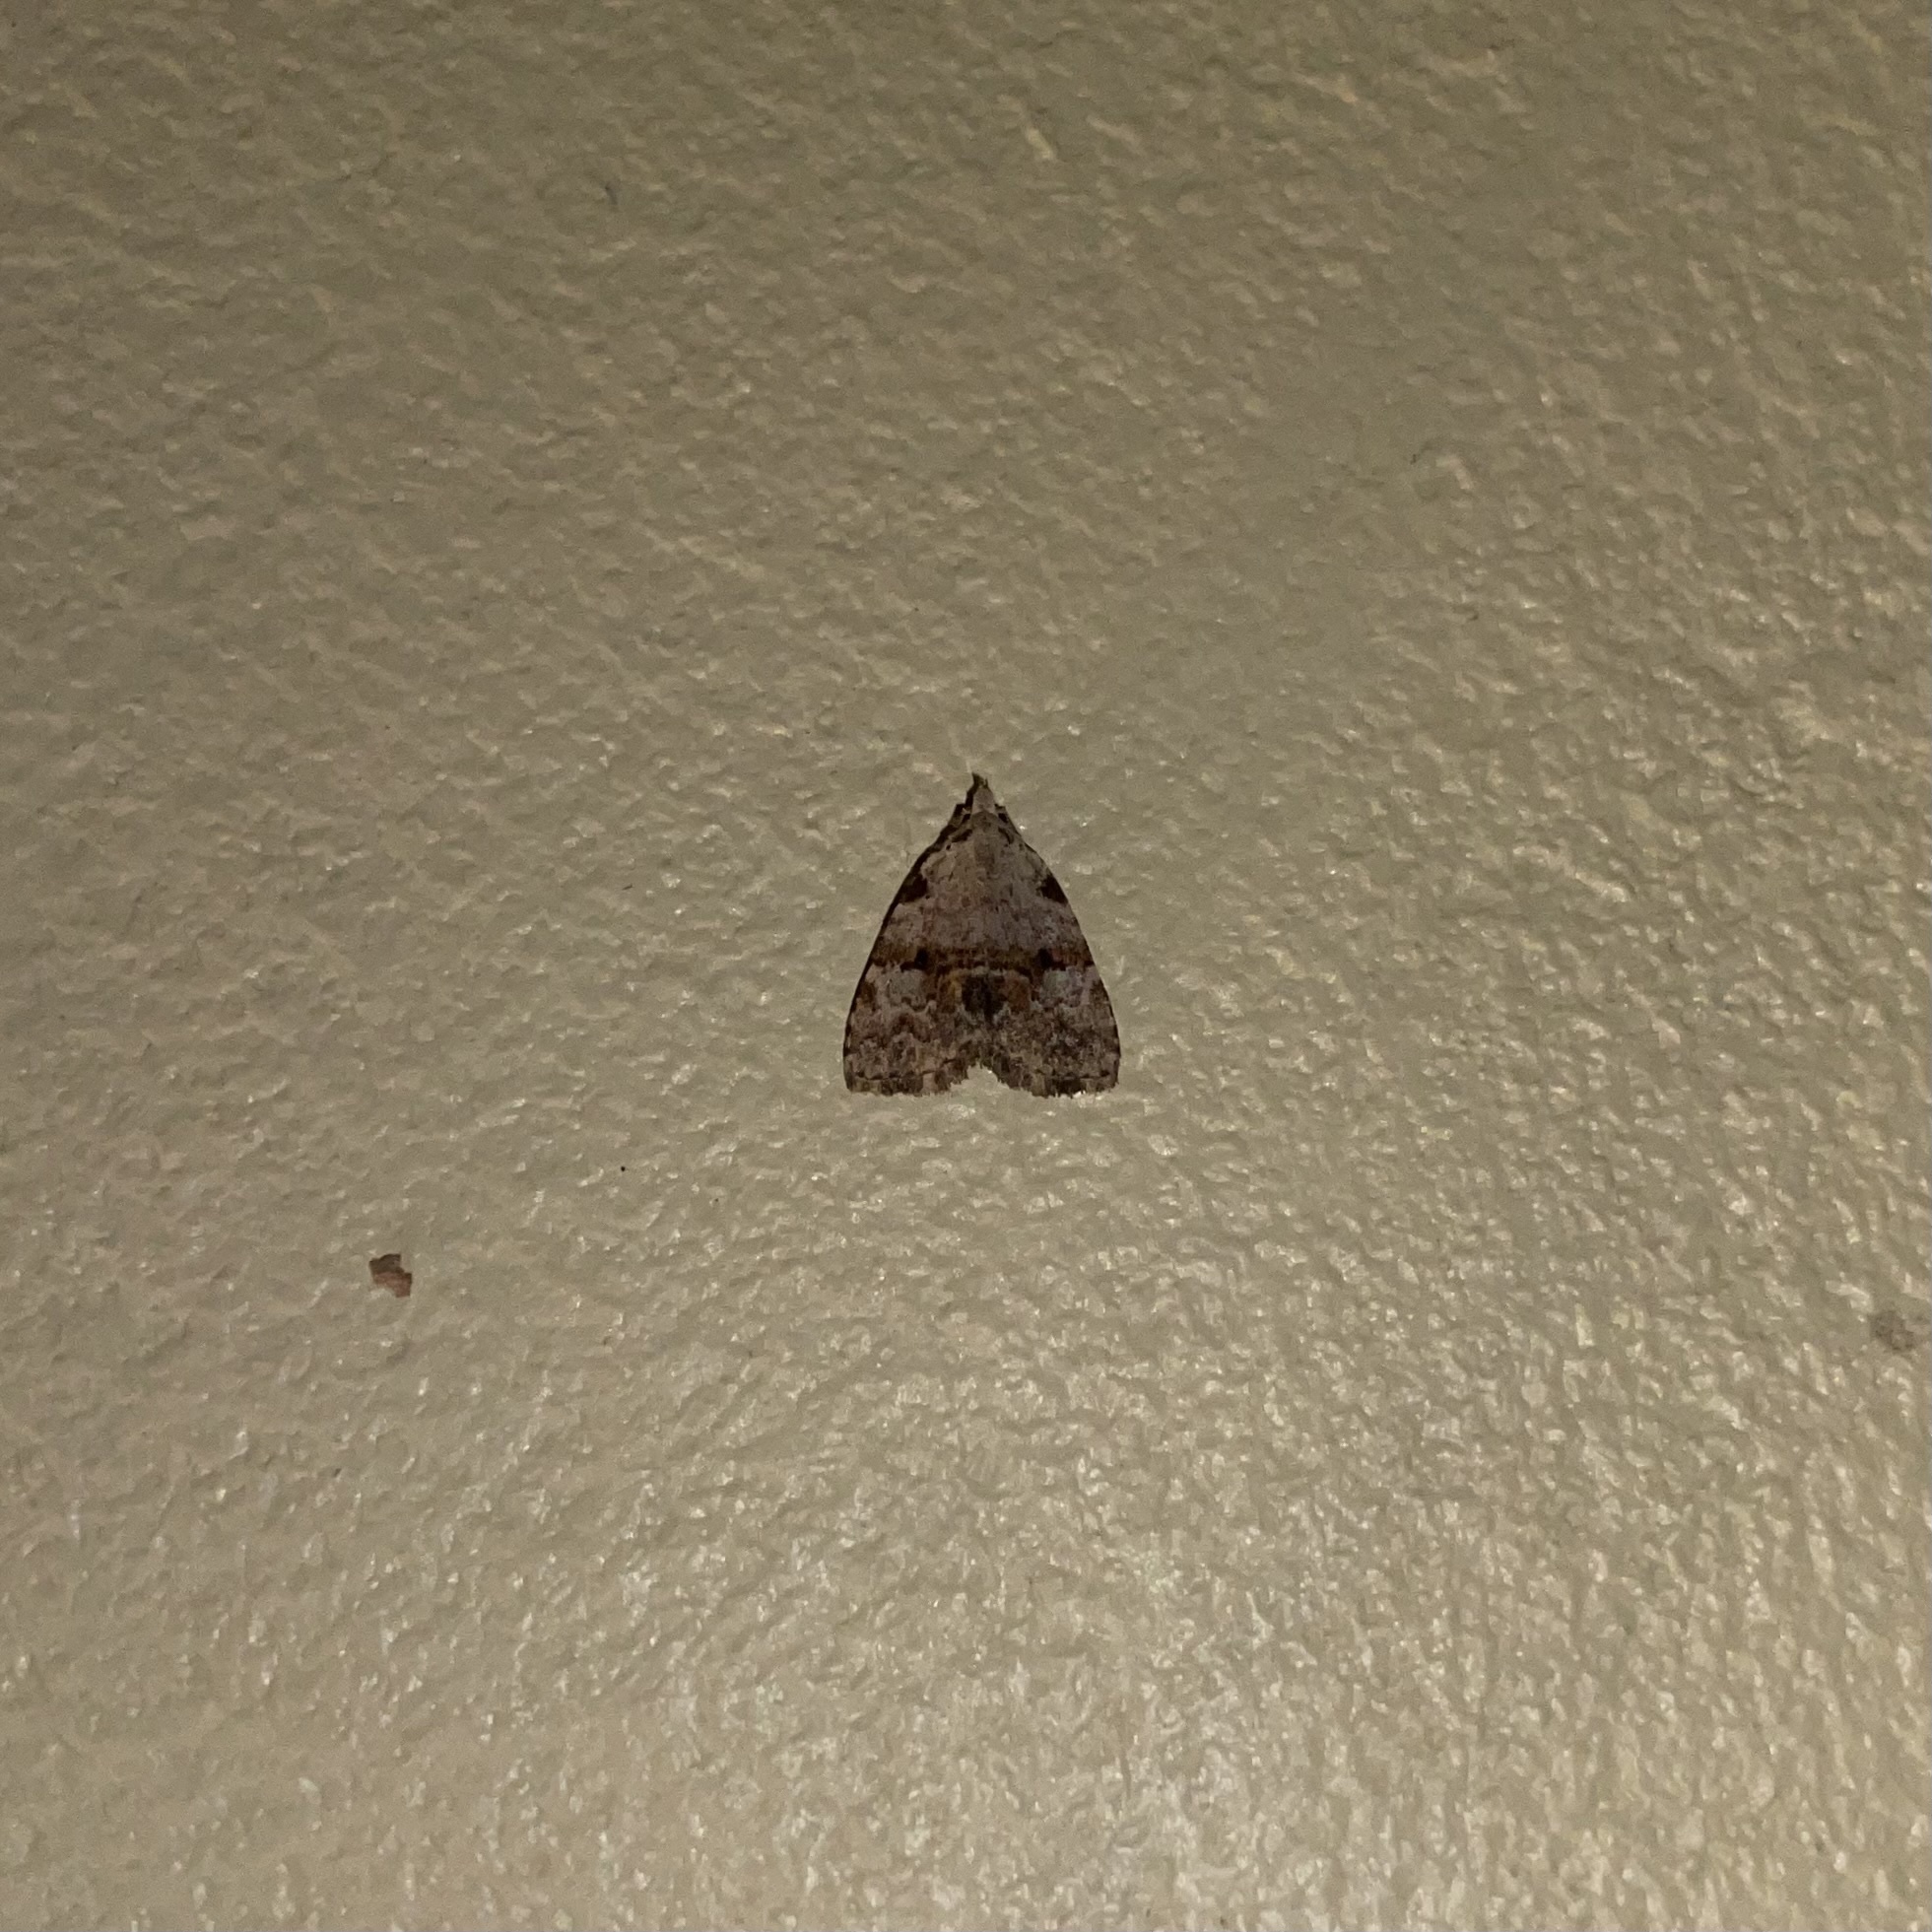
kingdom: Animalia
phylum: Arthropoda
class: Insecta
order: Lepidoptera
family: Erebidae
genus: Bradunia
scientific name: Bradunia costigutta
